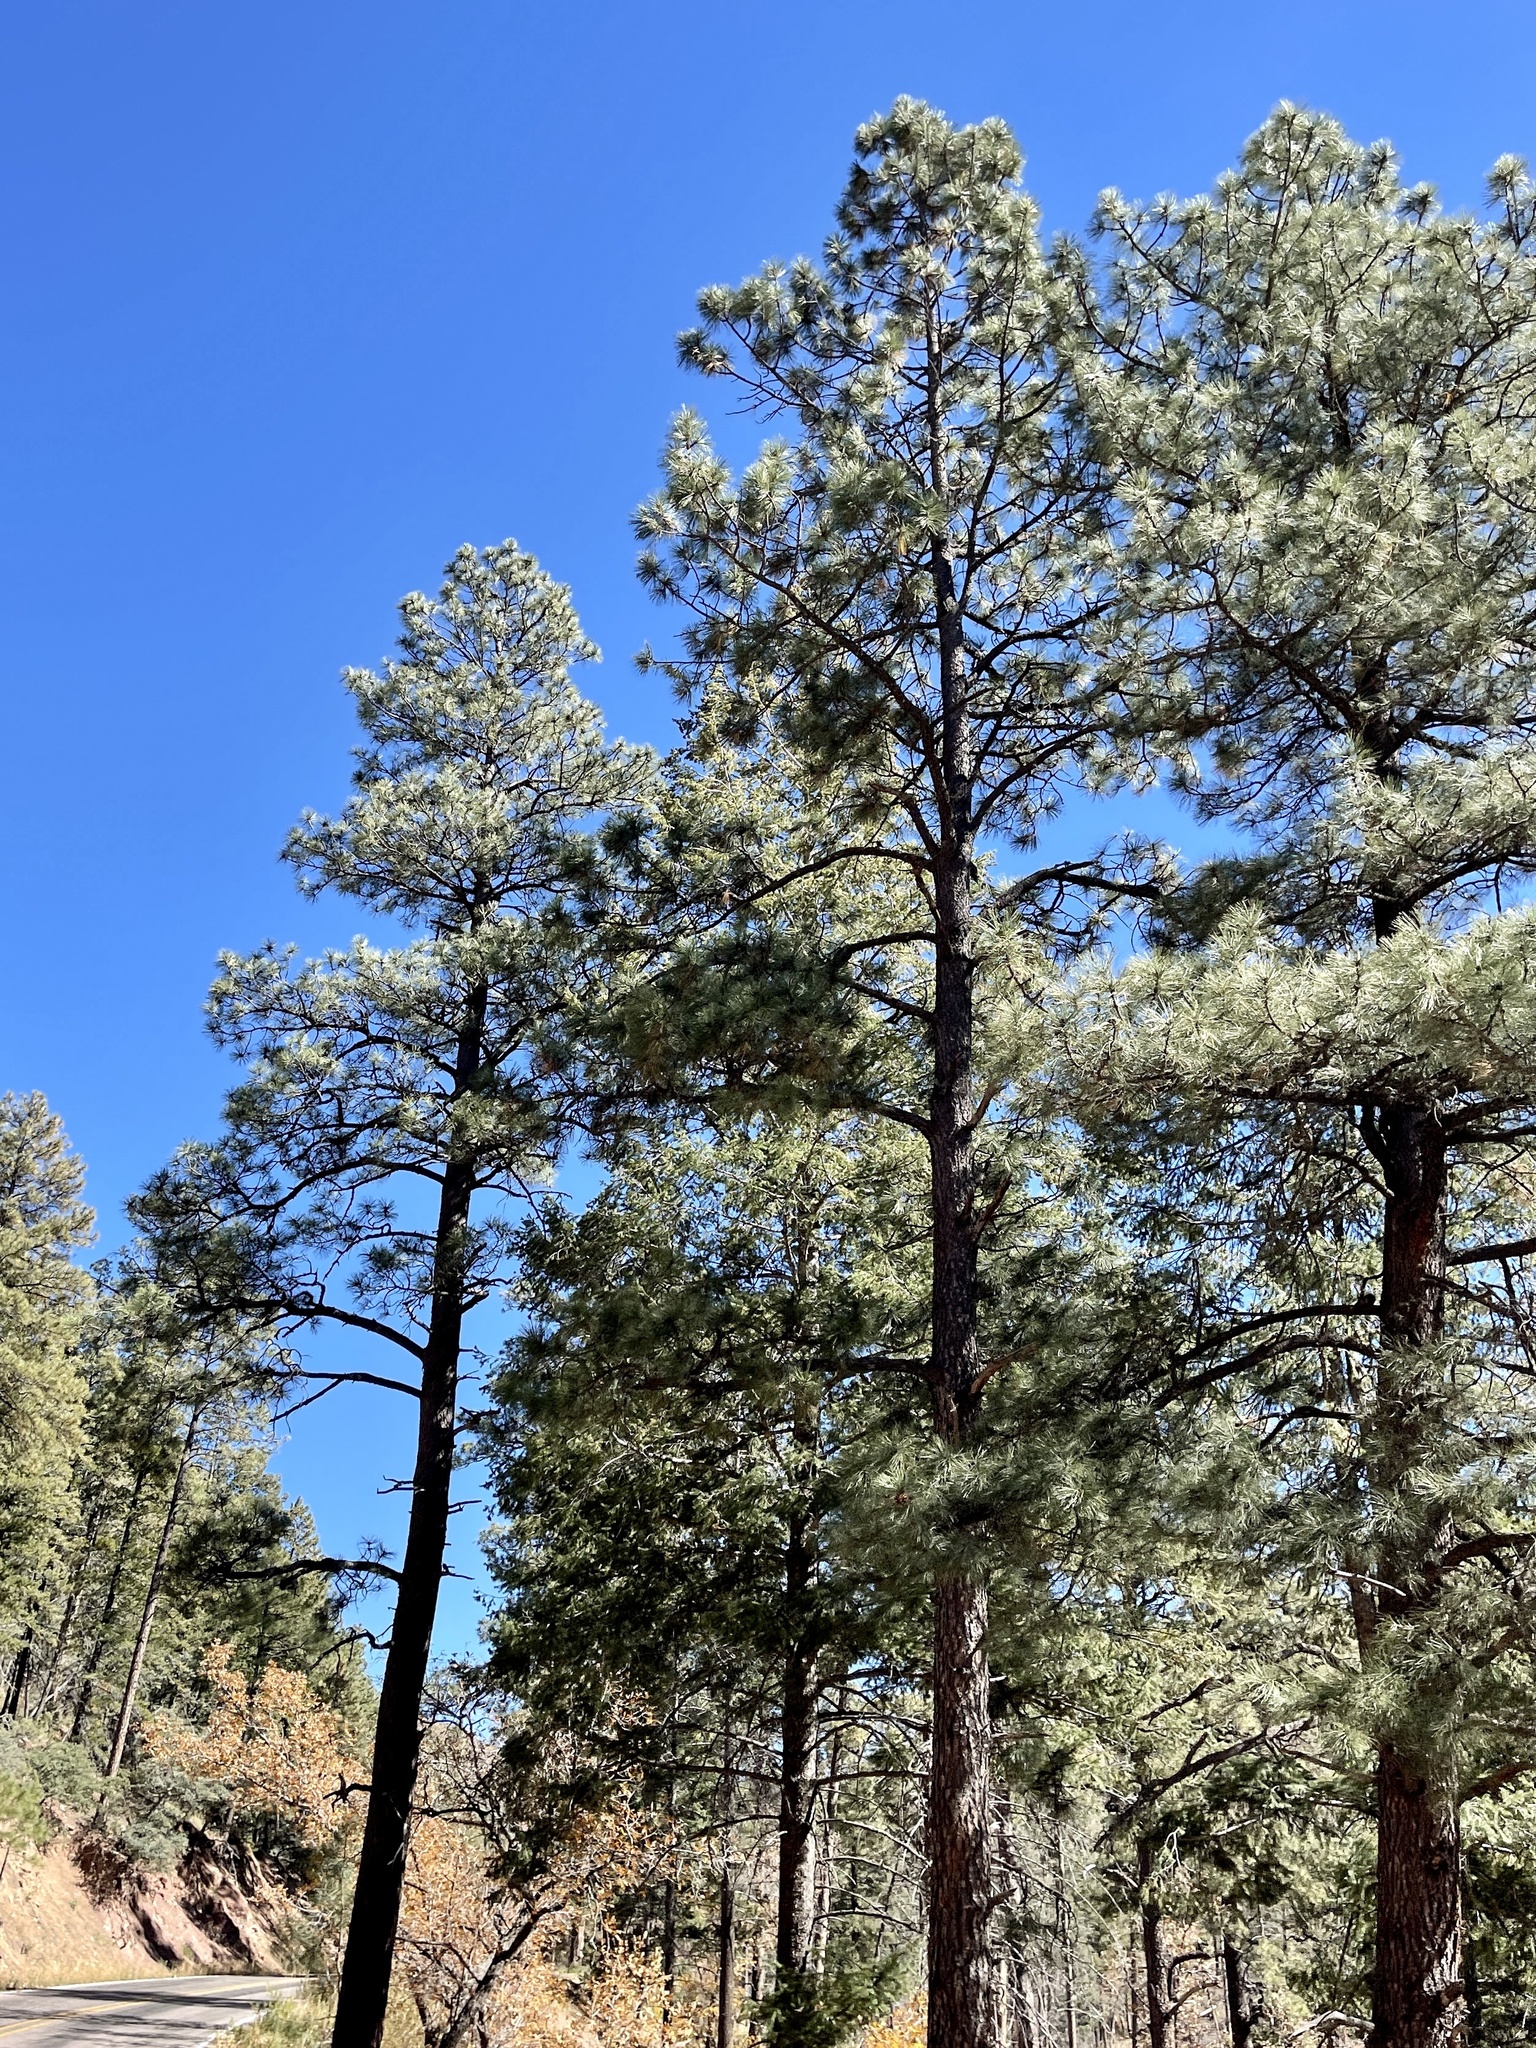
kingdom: Plantae
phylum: Tracheophyta
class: Pinopsida
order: Pinales
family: Pinaceae
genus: Pinus
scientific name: Pinus ponderosa
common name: Western yellow-pine
